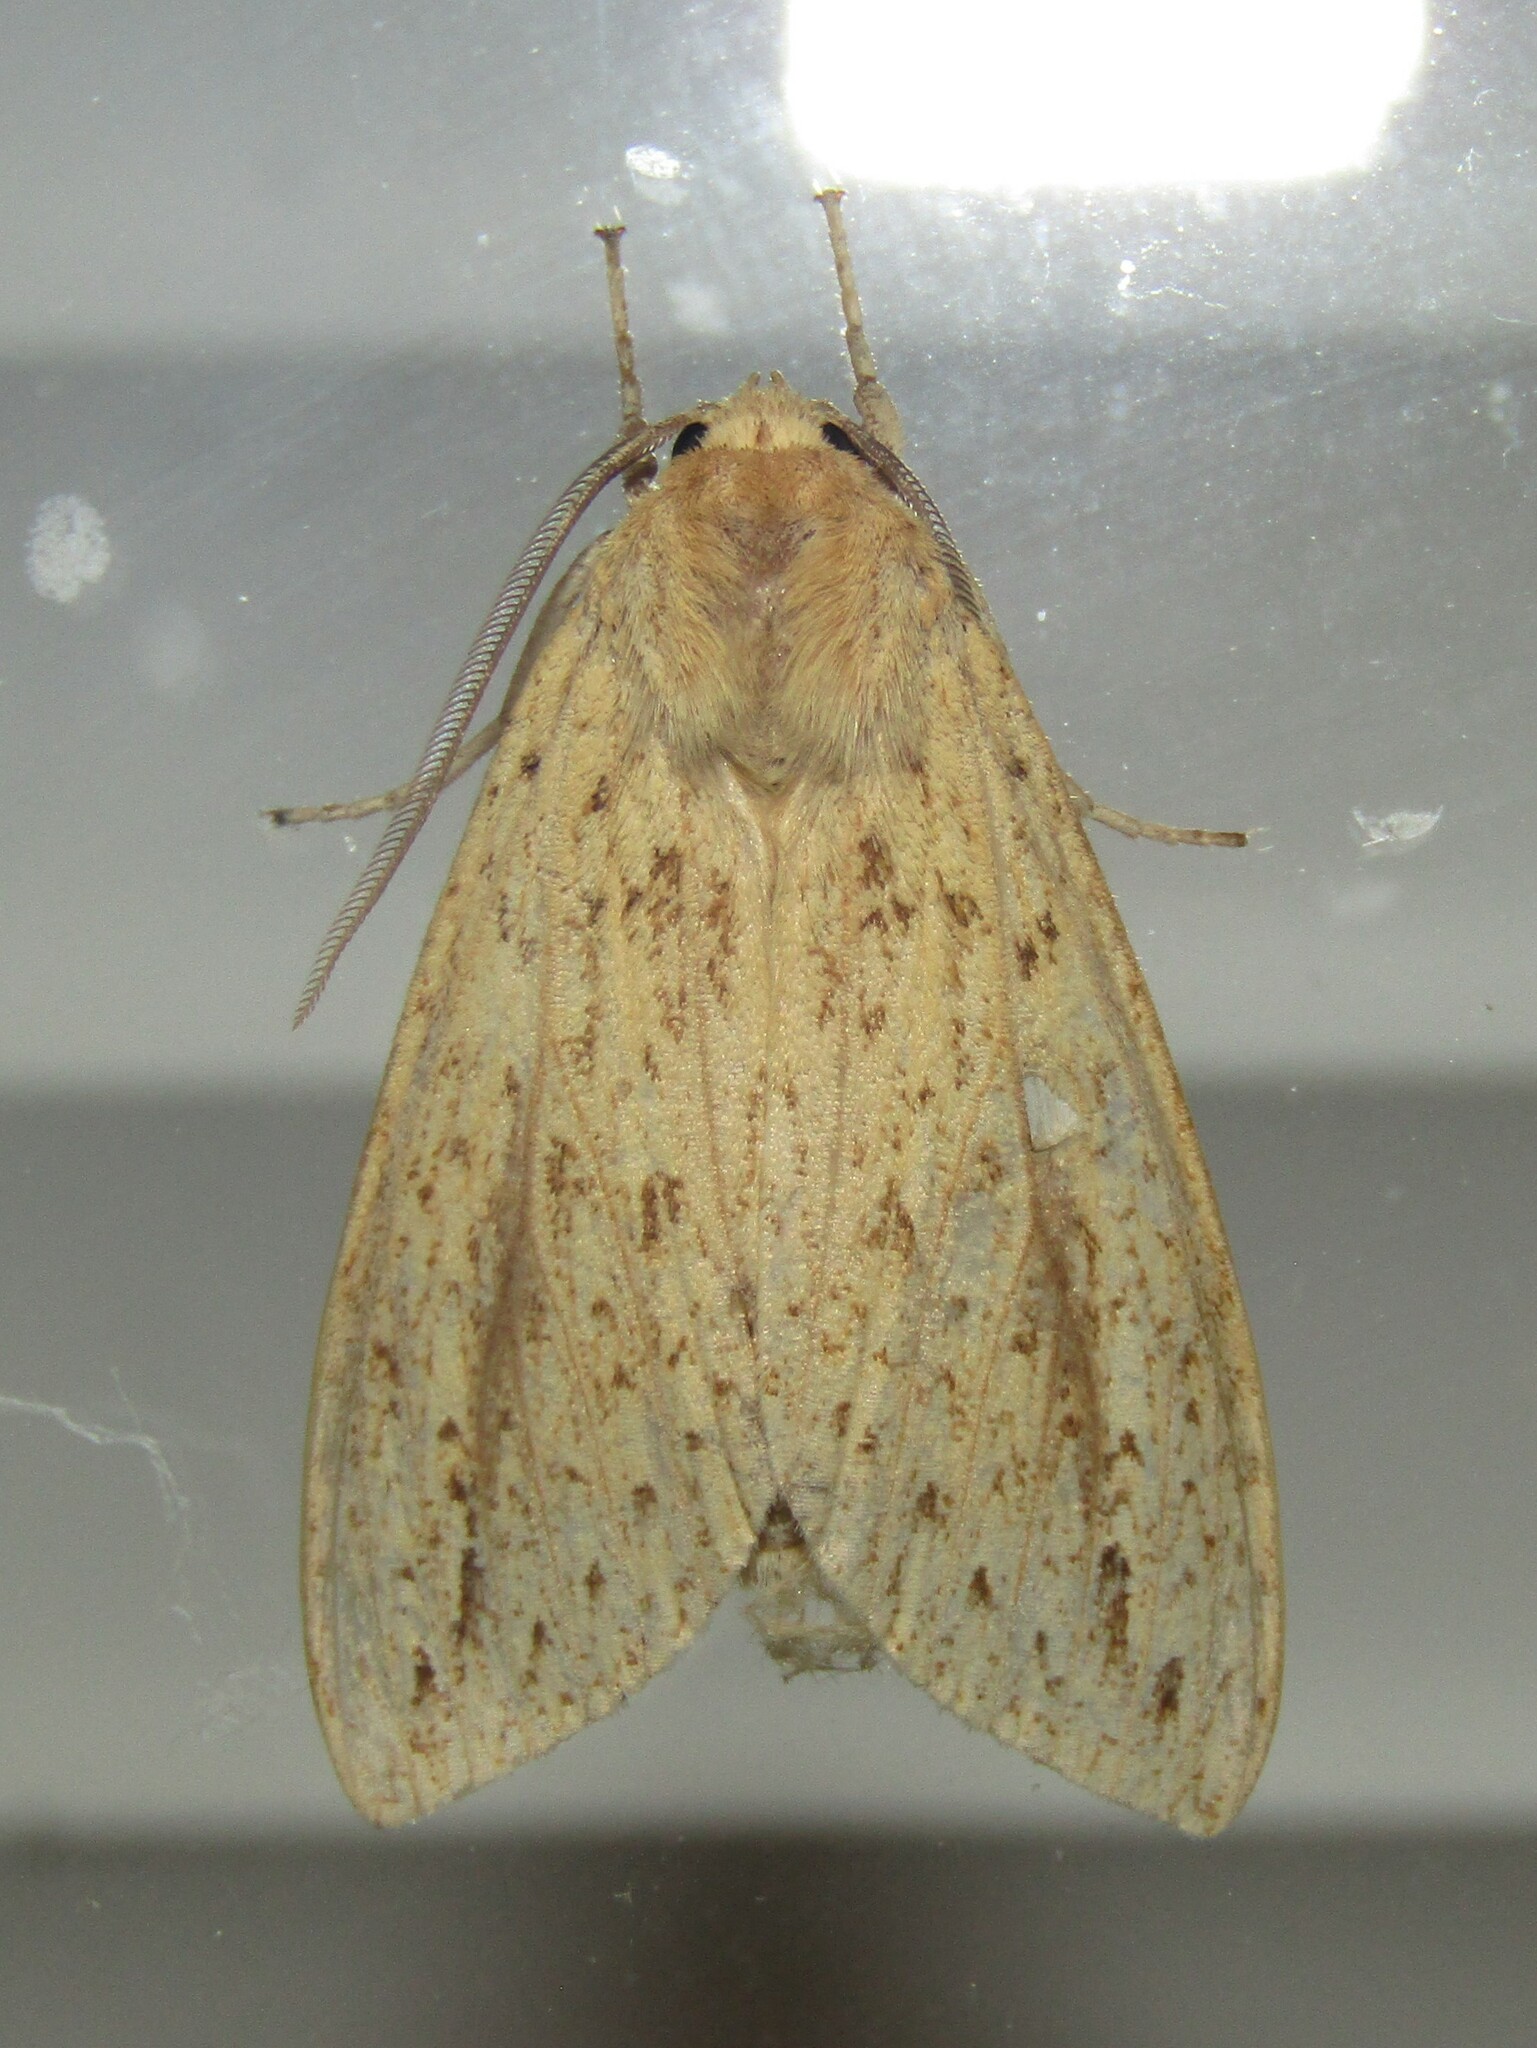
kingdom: Animalia
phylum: Arthropoda
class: Insecta
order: Lepidoptera
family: Erebidae
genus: Leucanopsis
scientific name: Leucanopsis longa
